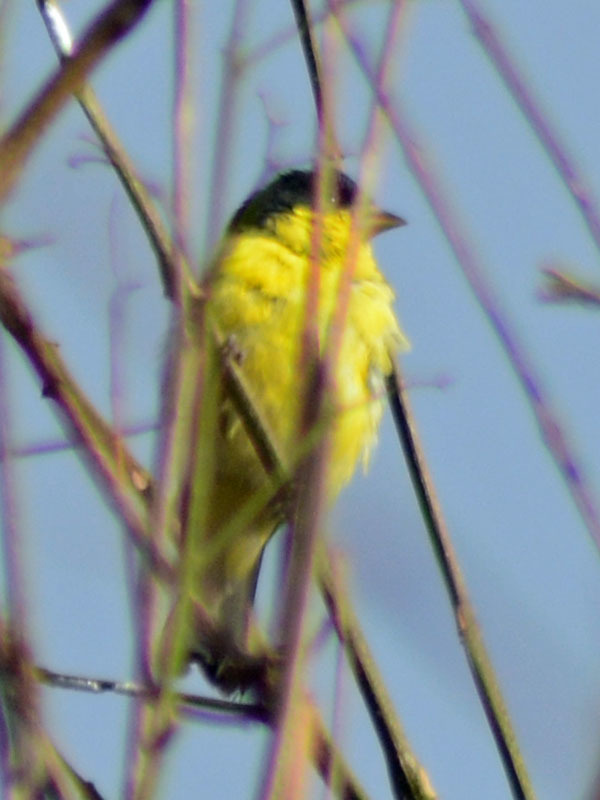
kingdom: Animalia
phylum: Chordata
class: Aves
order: Passeriformes
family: Fringillidae
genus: Spinus
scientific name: Spinus psaltria
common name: Lesser goldfinch
